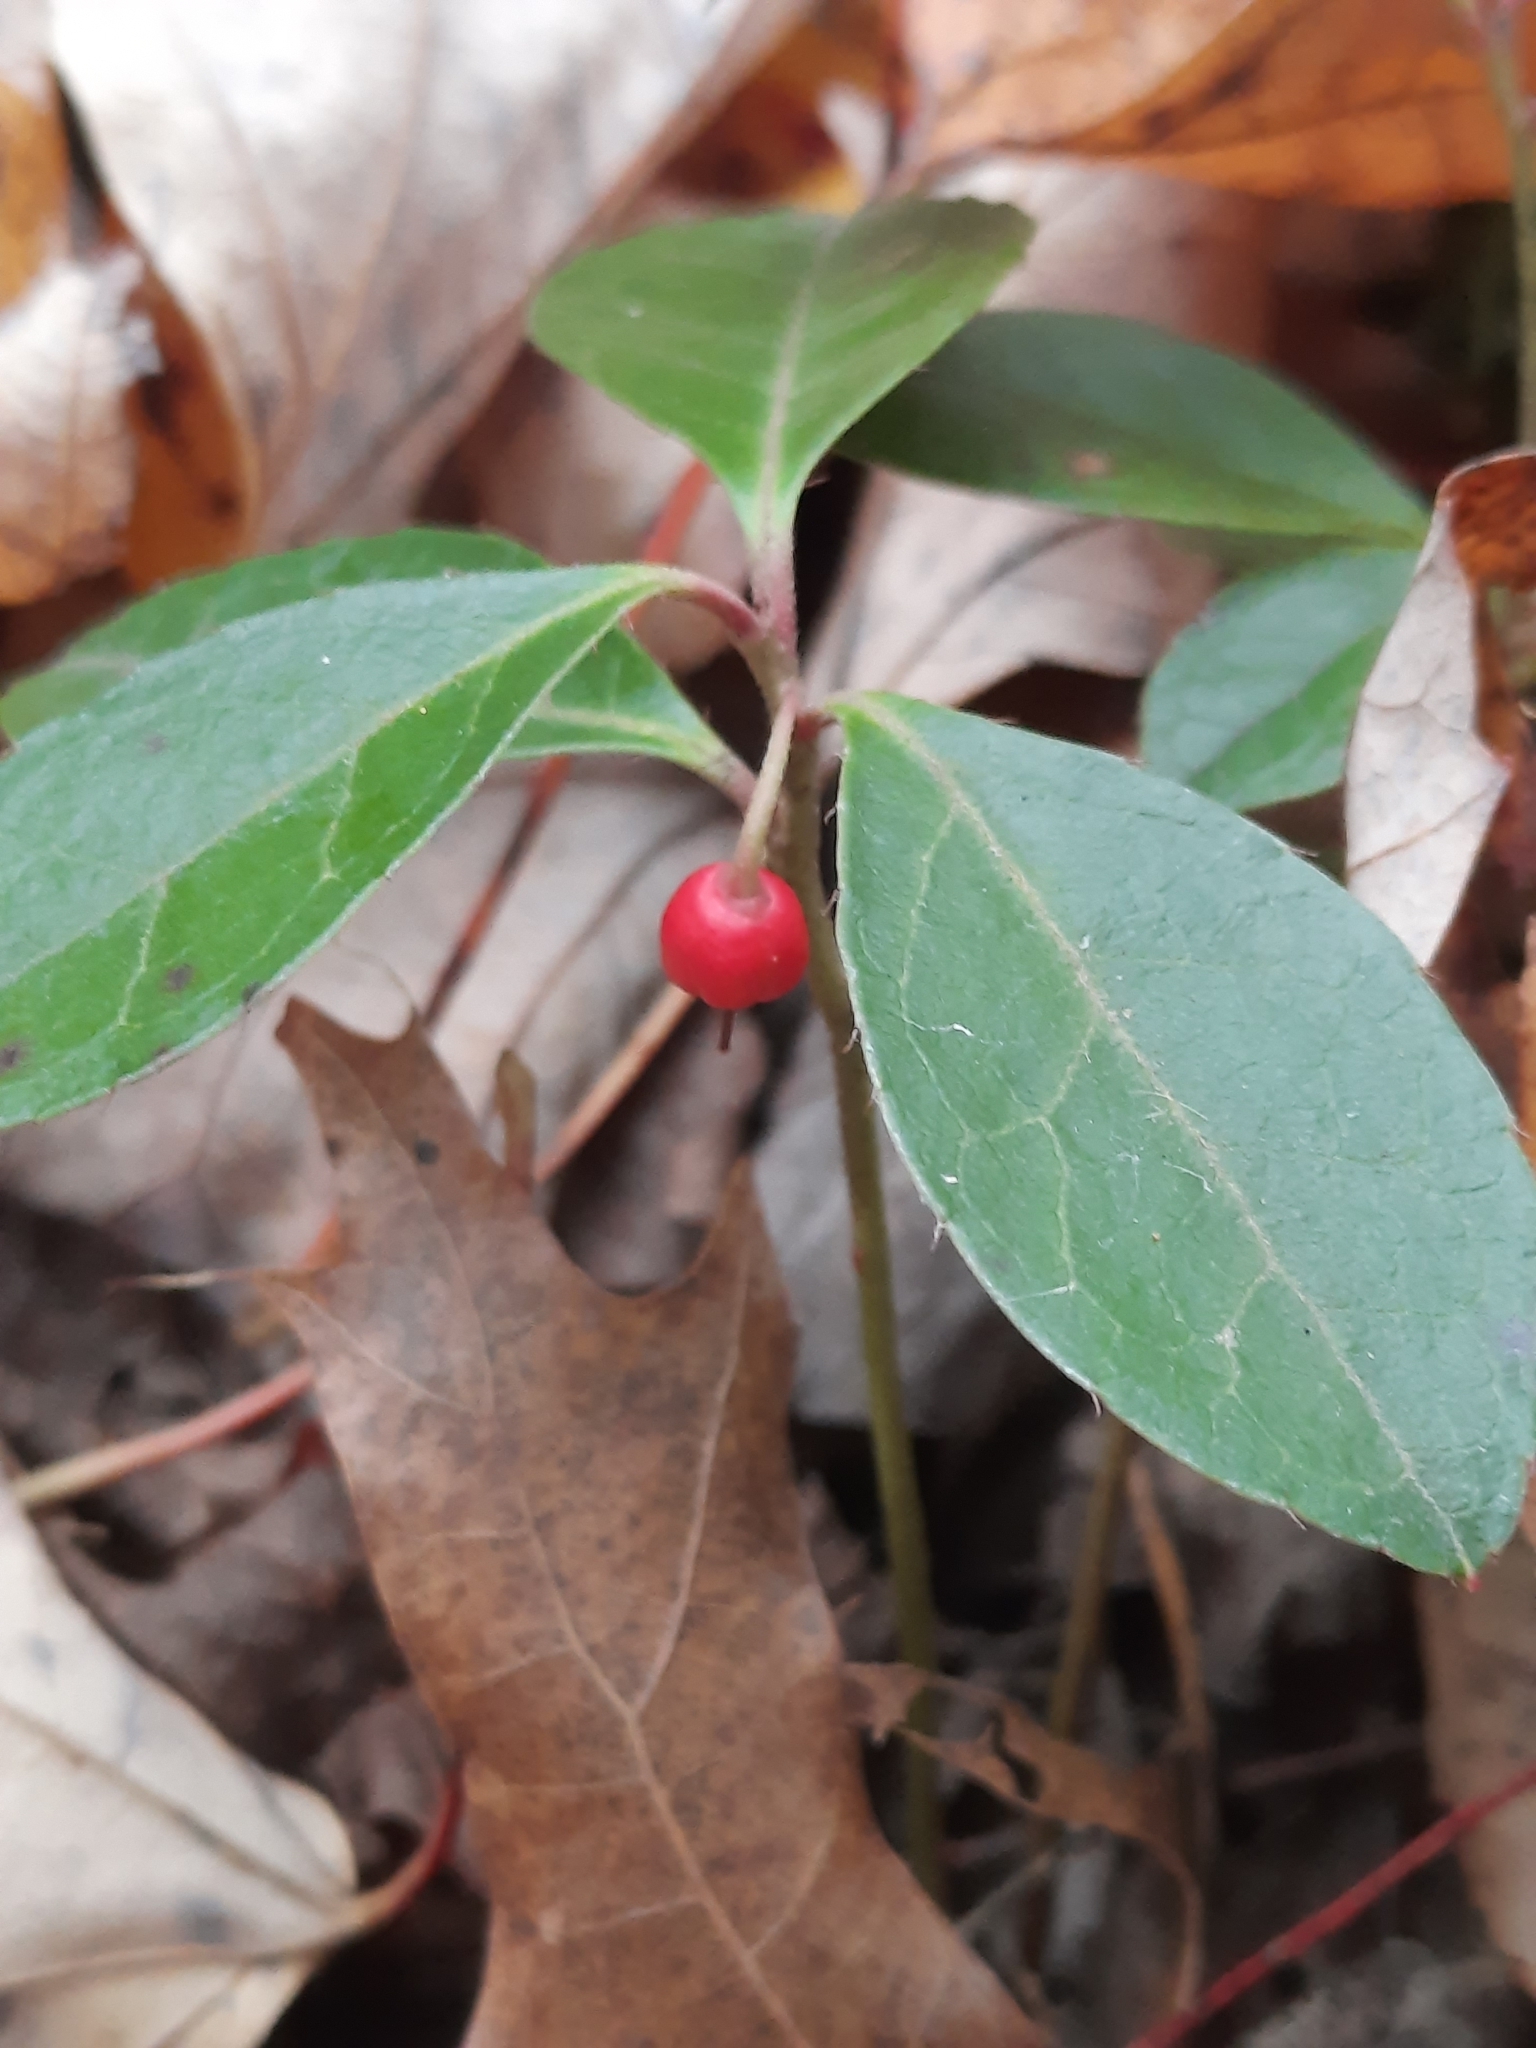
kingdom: Plantae
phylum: Tracheophyta
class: Magnoliopsida
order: Ericales
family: Ericaceae
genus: Gaultheria
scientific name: Gaultheria procumbens
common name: Checkerberry
